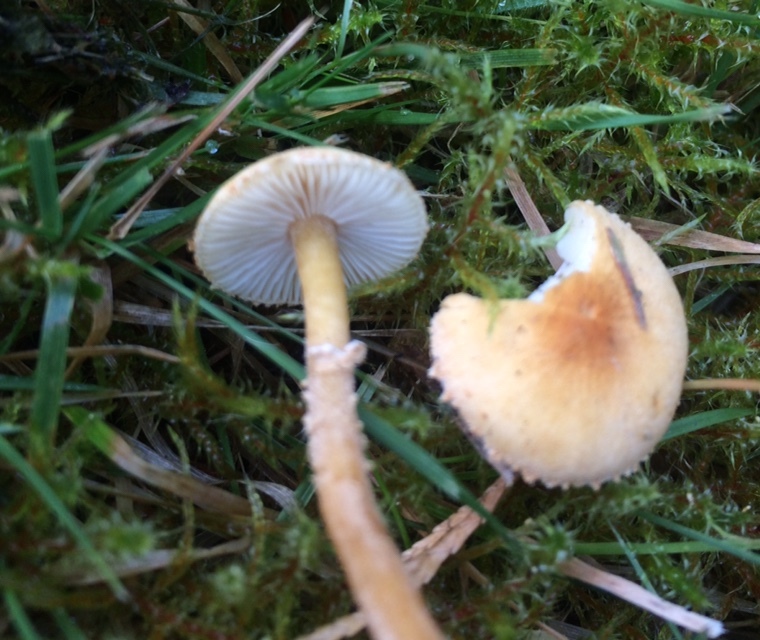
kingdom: Fungi
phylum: Basidiomycota
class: Agaricomycetes
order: Agaricales
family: Tricholomataceae
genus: Cystoderma
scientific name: Cystoderma amianthinum
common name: Earthy powdercap
